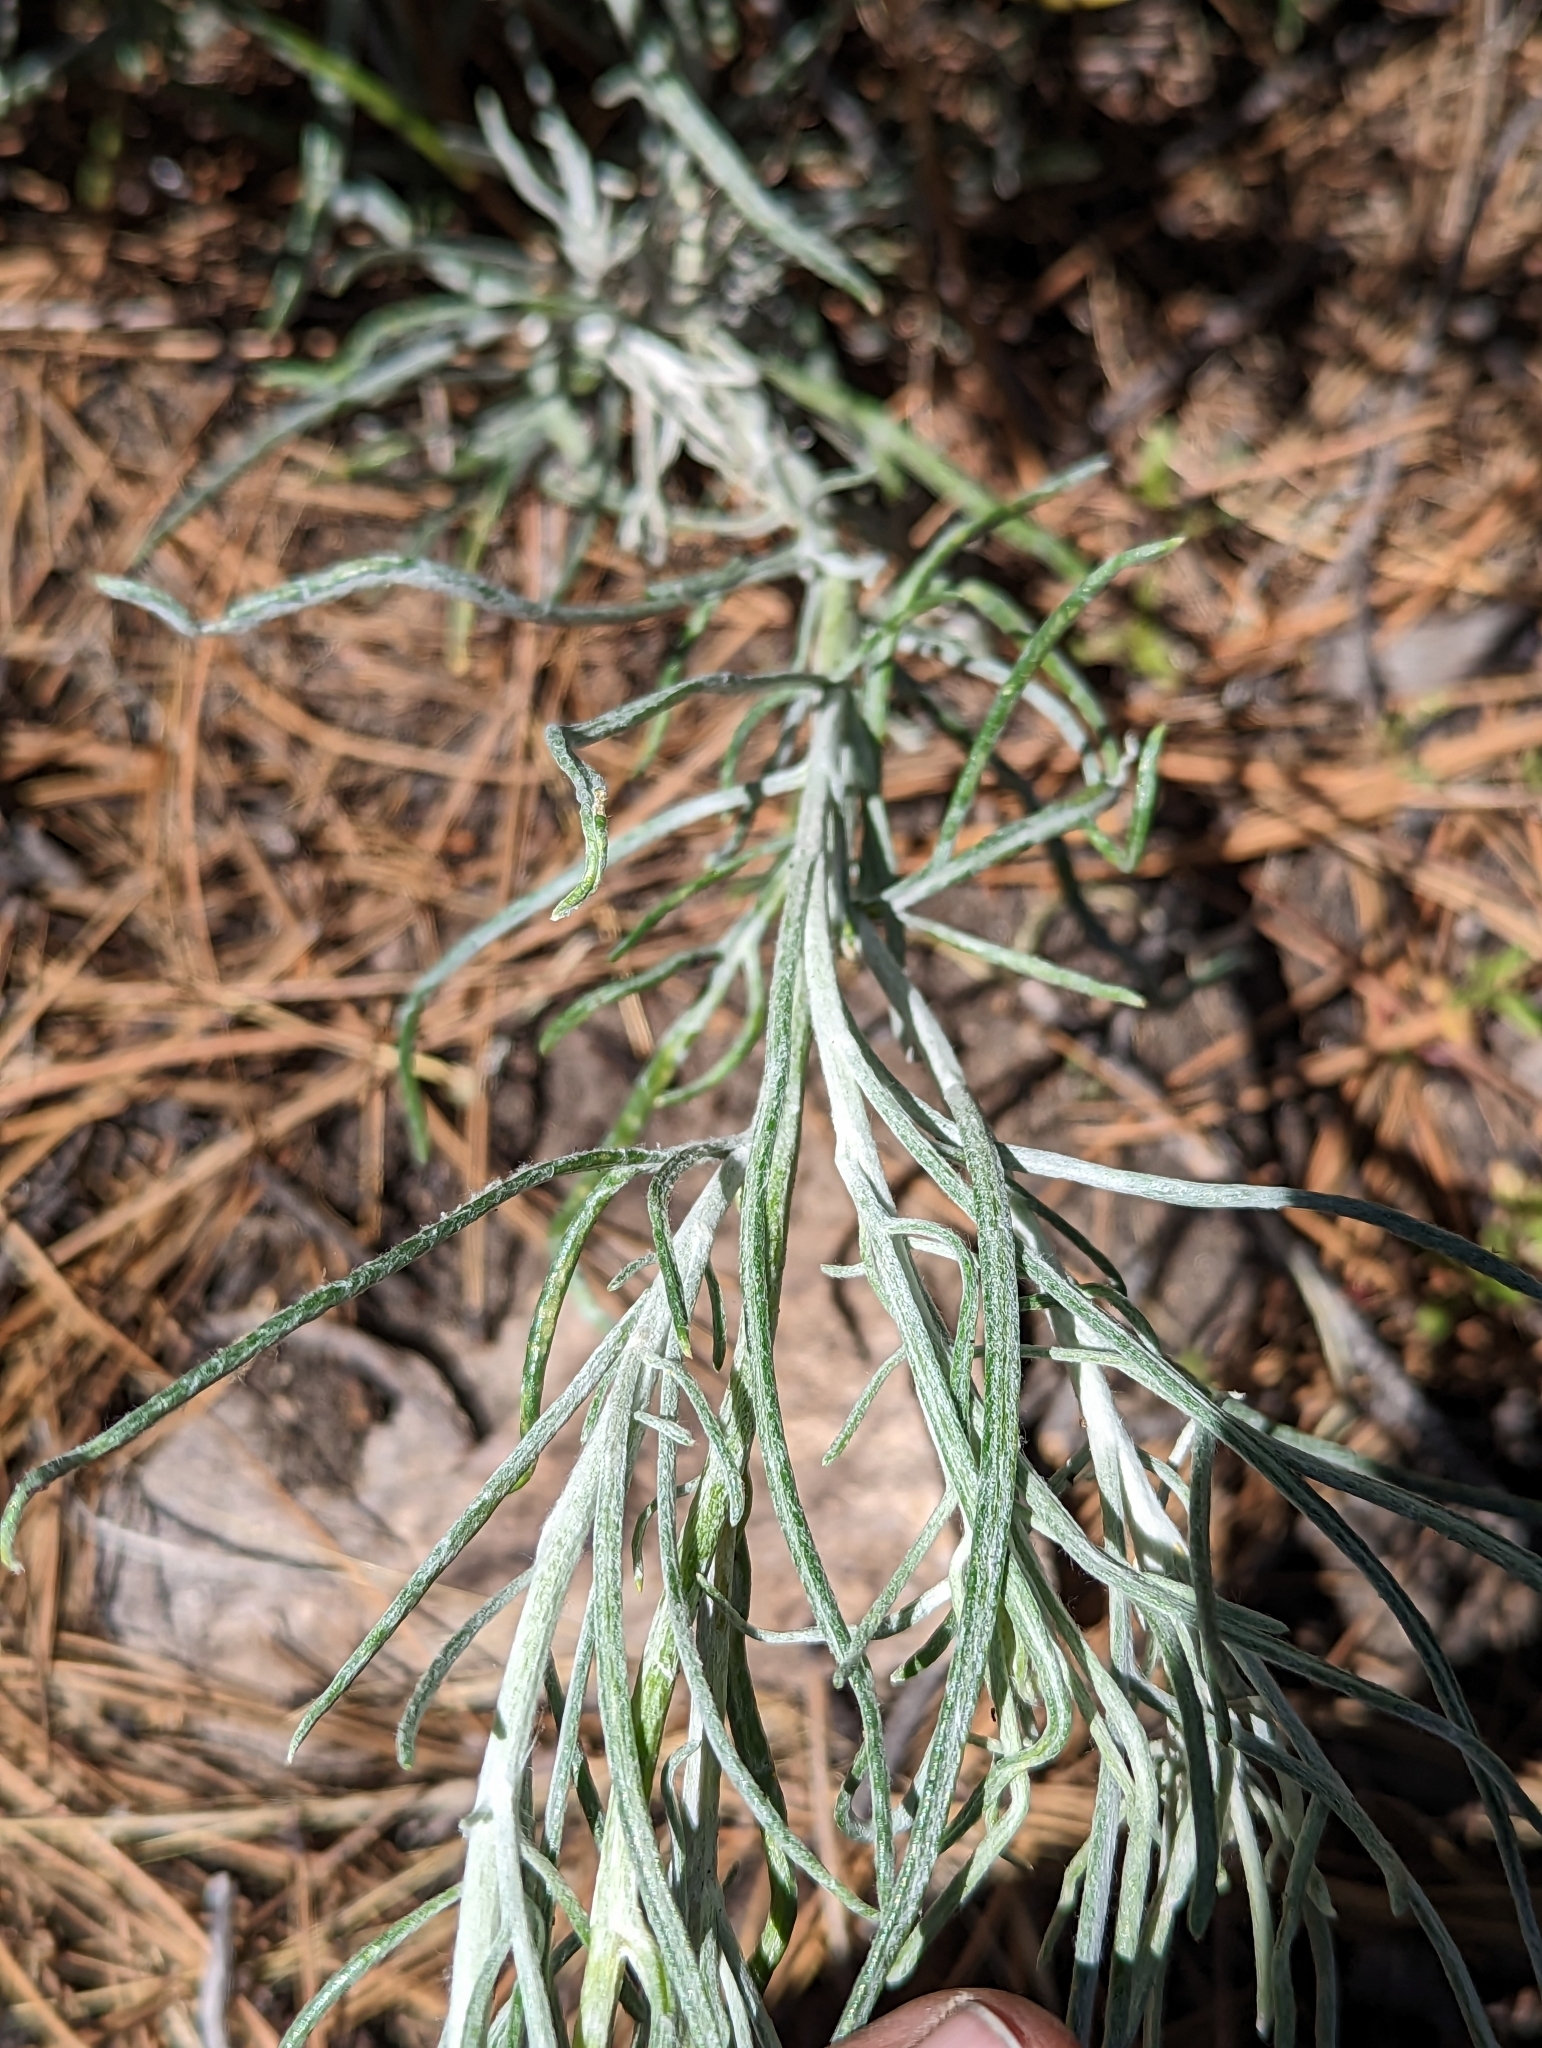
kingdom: Plantae
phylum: Tracheophyta
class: Magnoliopsida
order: Asterales
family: Asteraceae
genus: Senecio
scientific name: Senecio flaccidus
